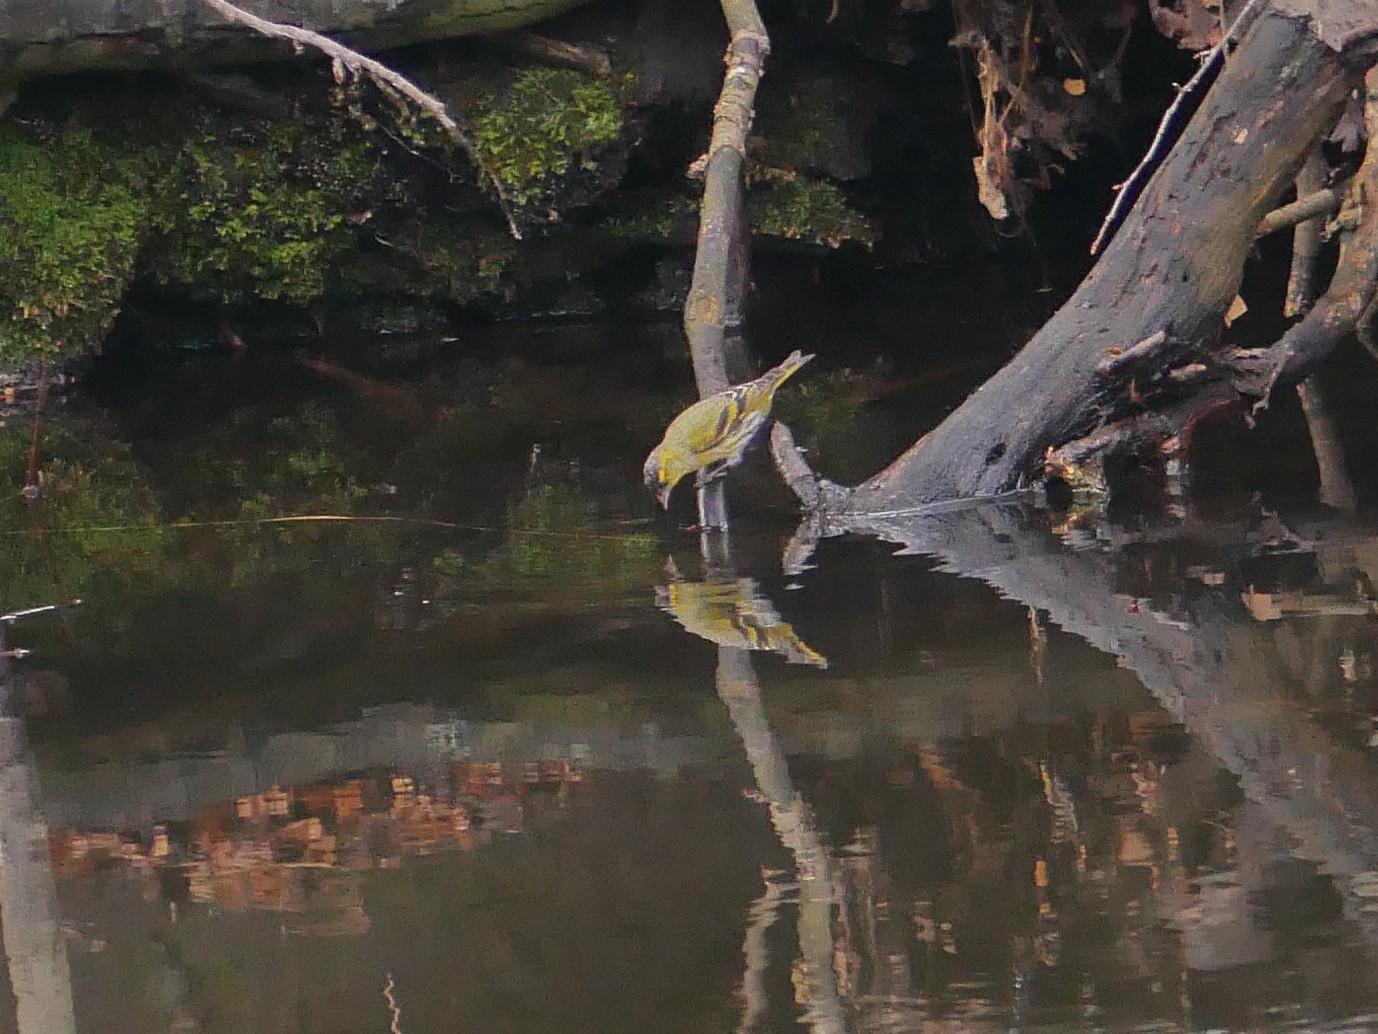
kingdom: Animalia
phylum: Chordata
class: Aves
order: Passeriformes
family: Fringillidae
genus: Spinus
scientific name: Spinus spinus
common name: Eurasian siskin
